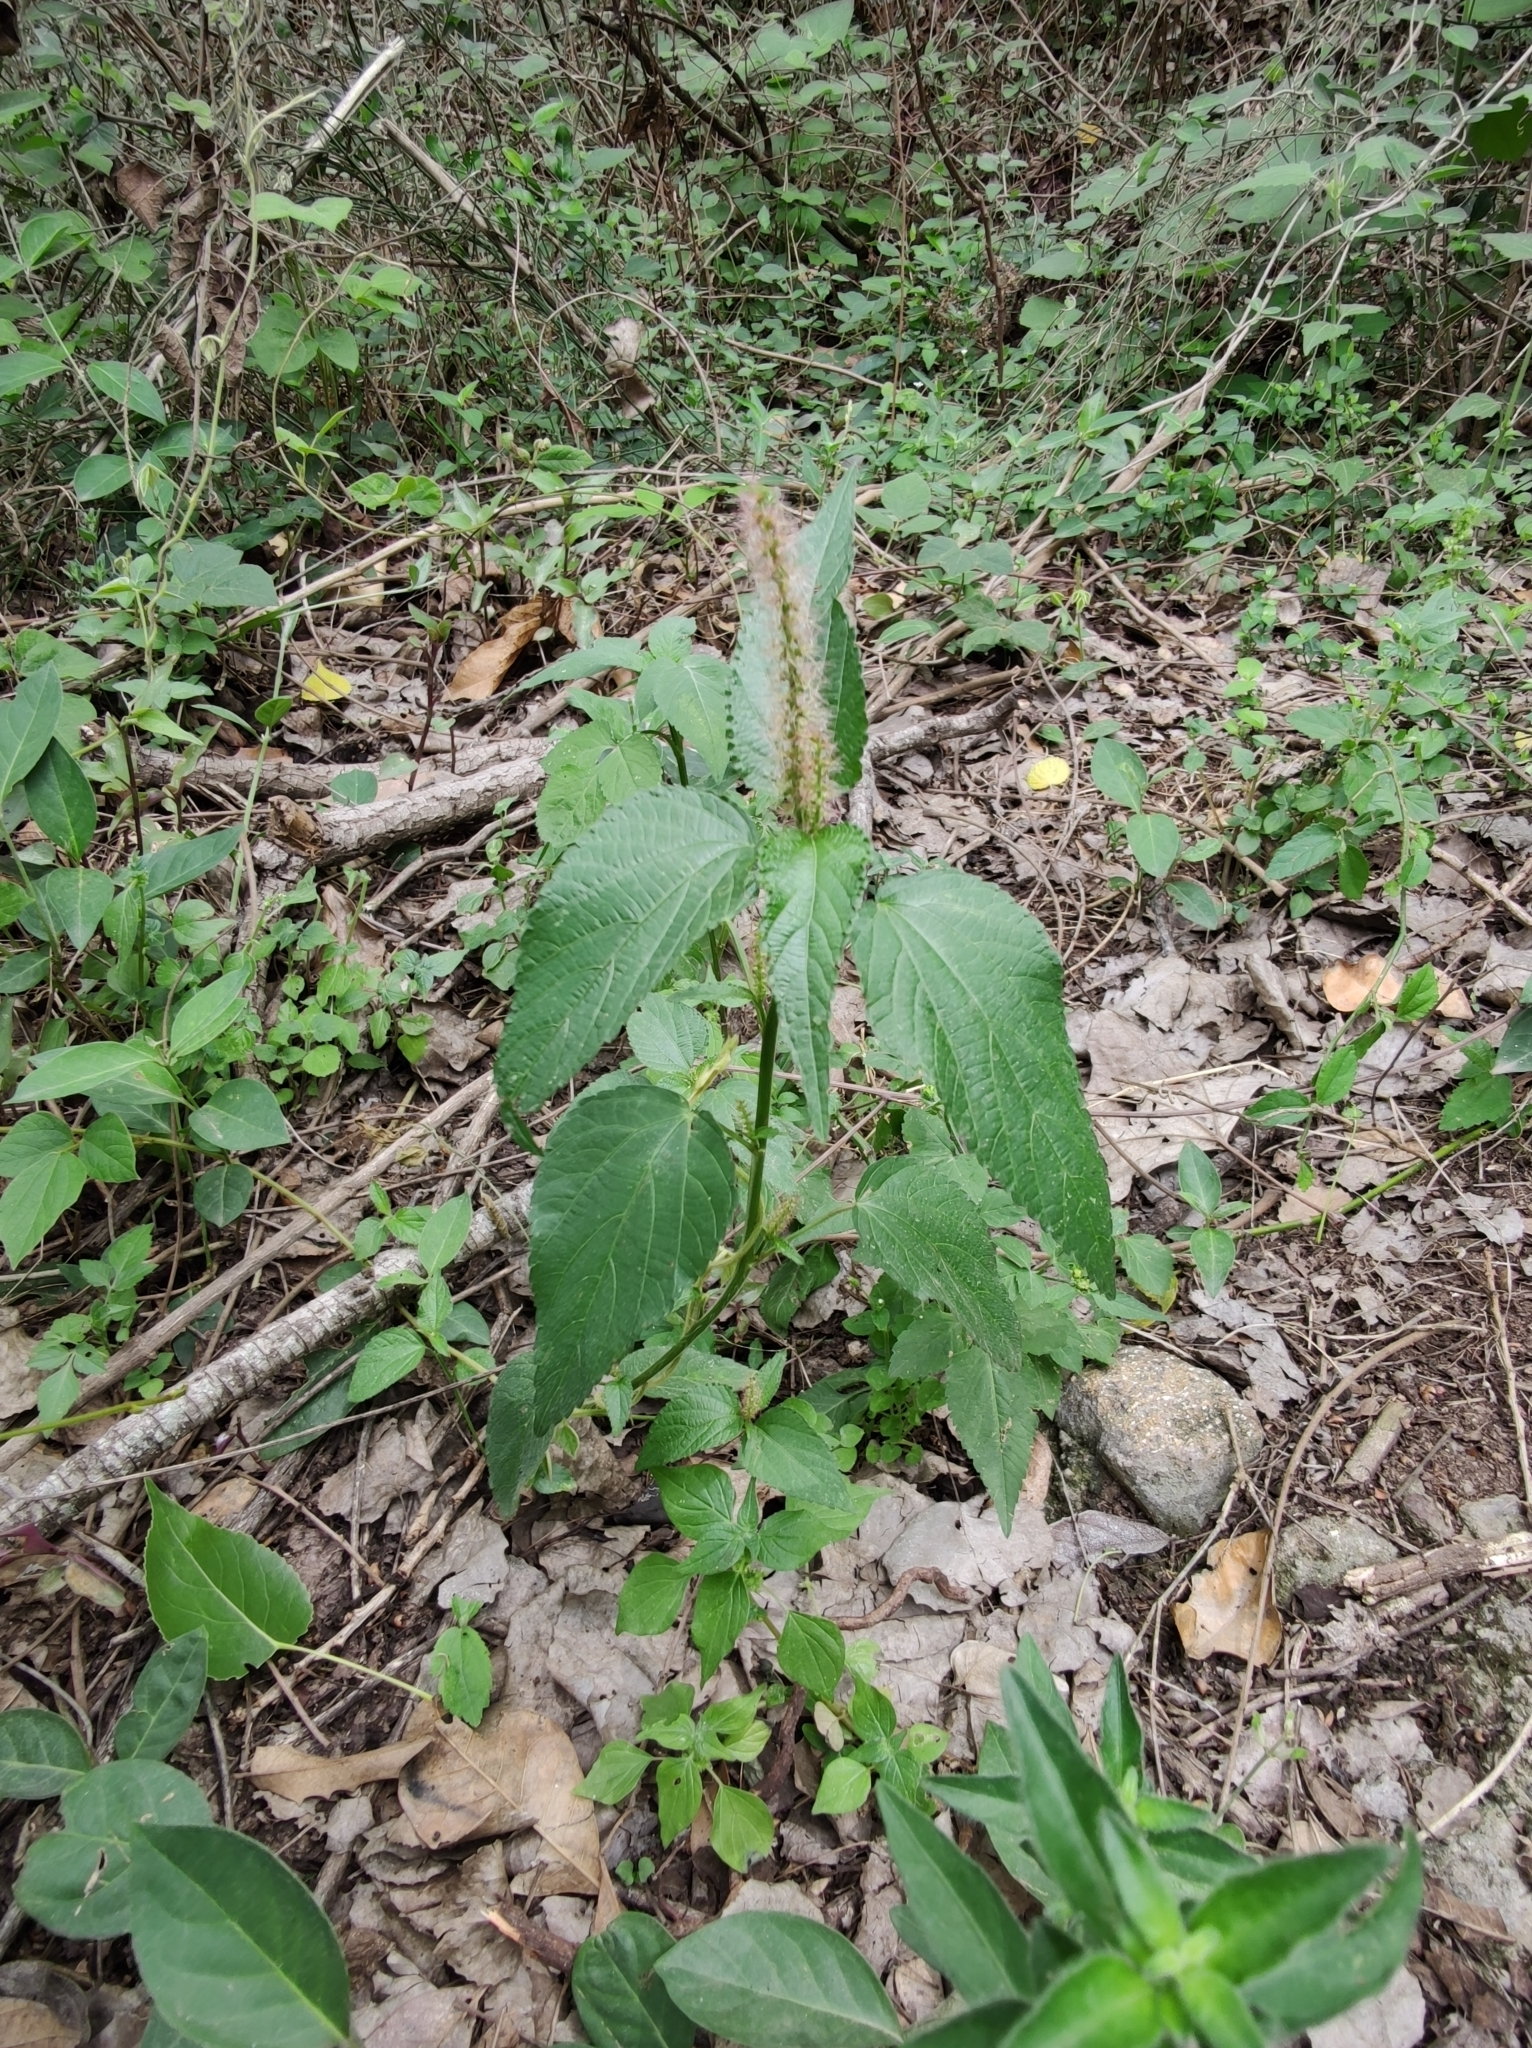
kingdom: Plantae
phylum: Tracheophyta
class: Magnoliopsida
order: Malpighiales
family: Euphorbiaceae
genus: Acalypha
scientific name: Acalypha ostryifolia
